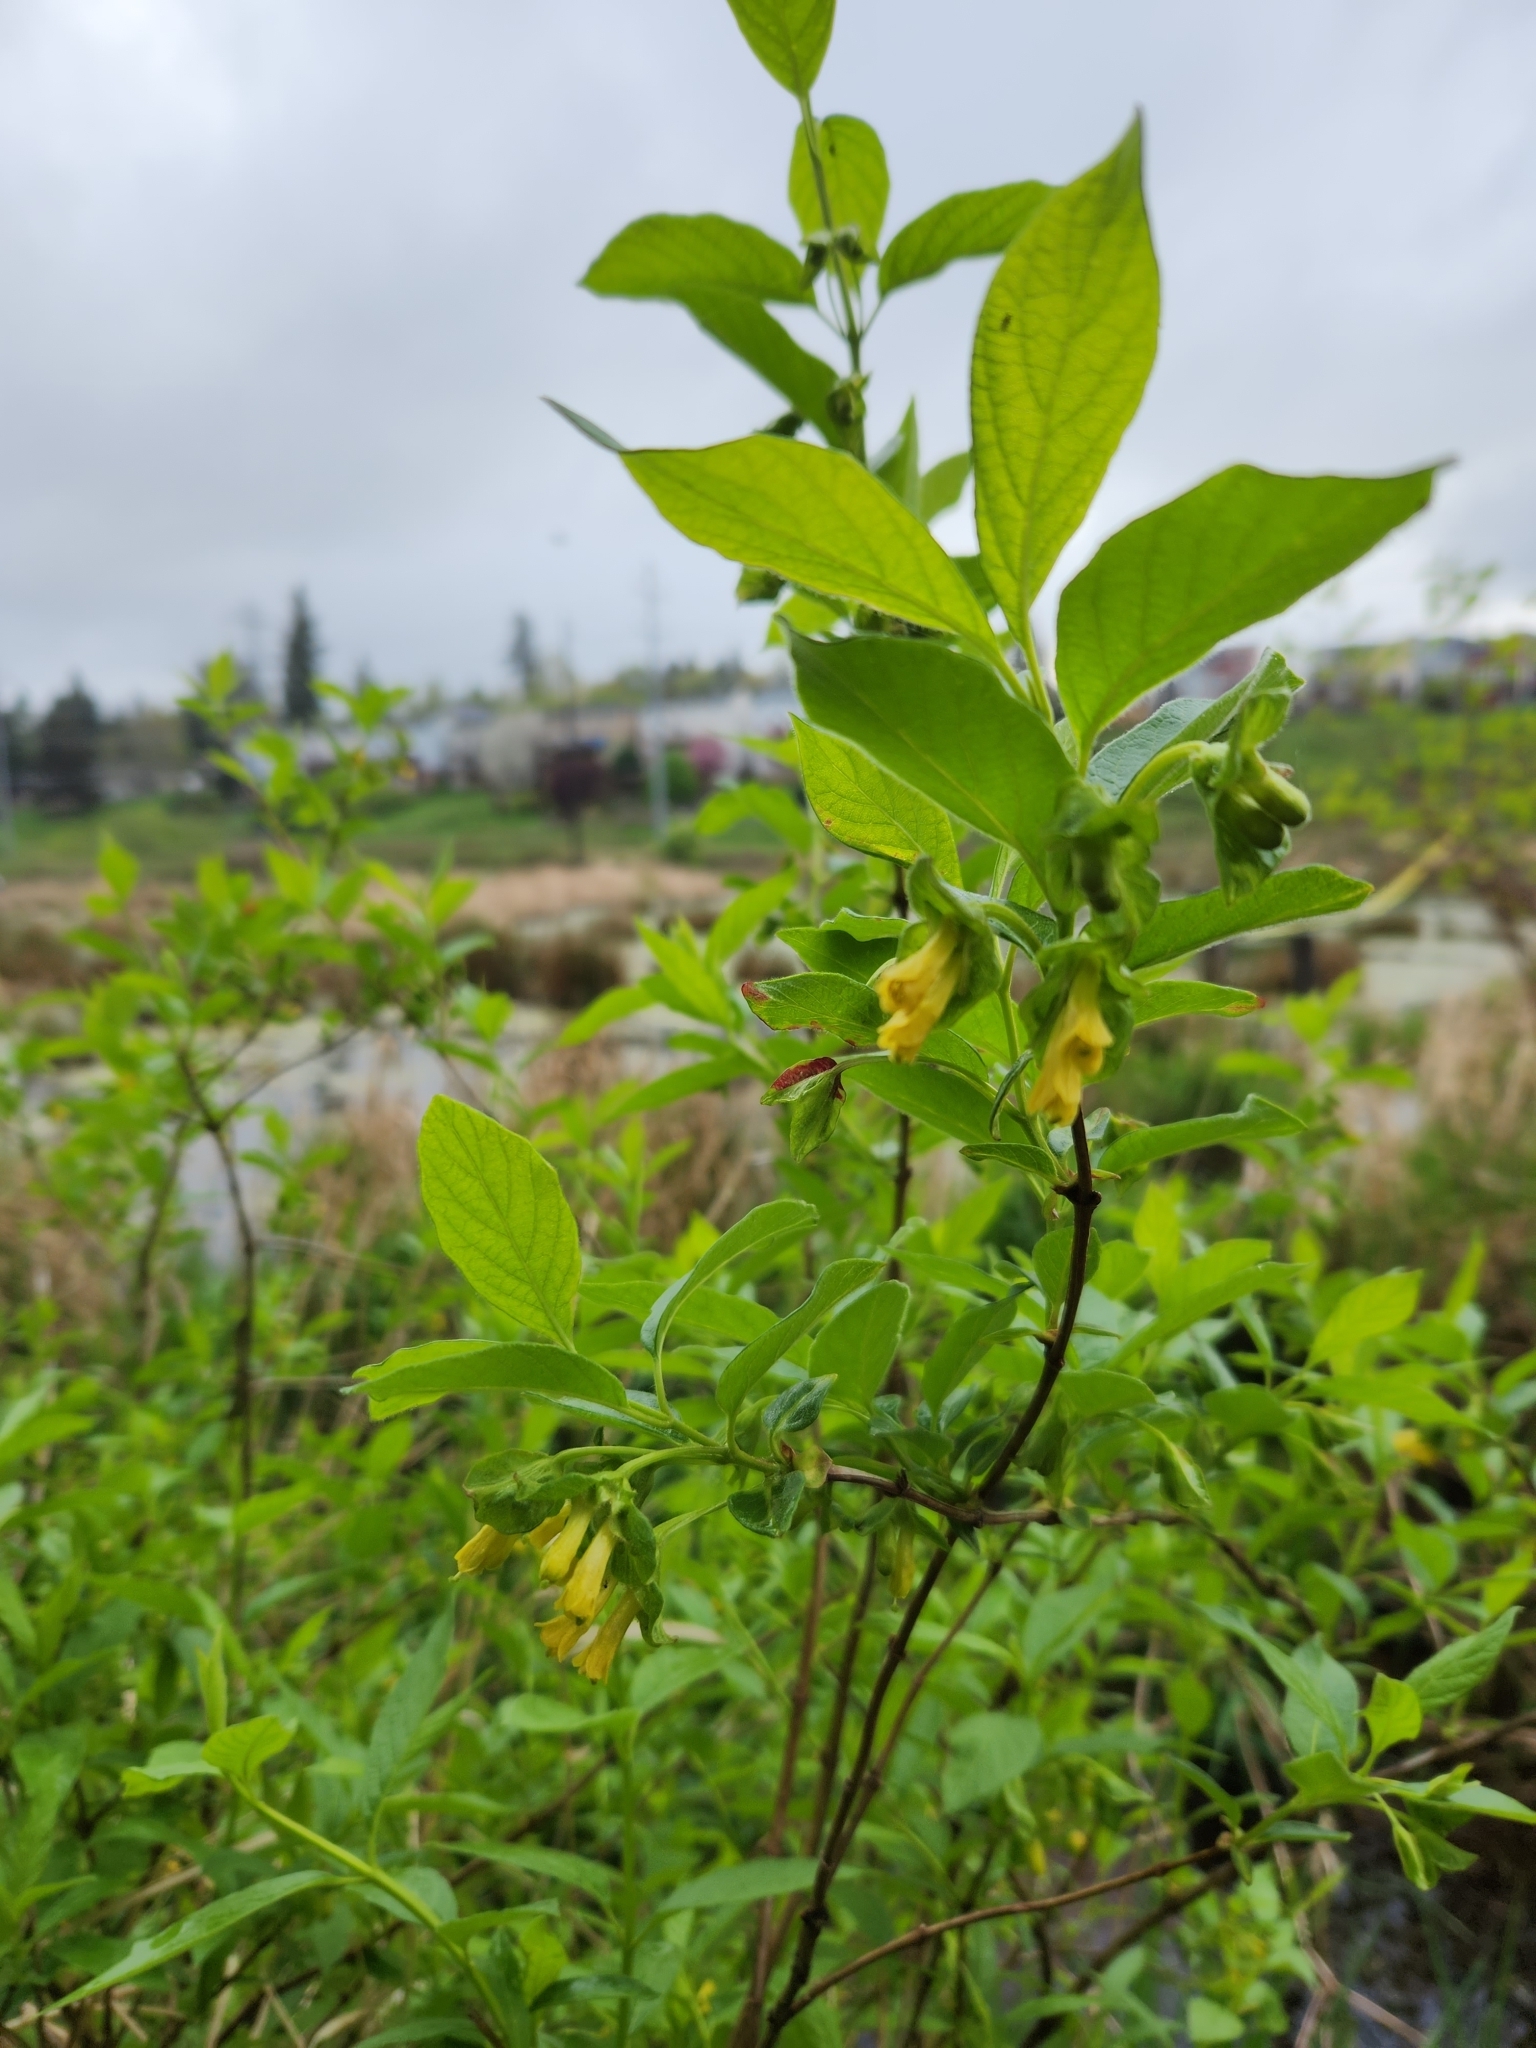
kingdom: Plantae
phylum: Tracheophyta
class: Magnoliopsida
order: Dipsacales
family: Caprifoliaceae
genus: Lonicera
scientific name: Lonicera involucrata
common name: Californian honeysuckle
